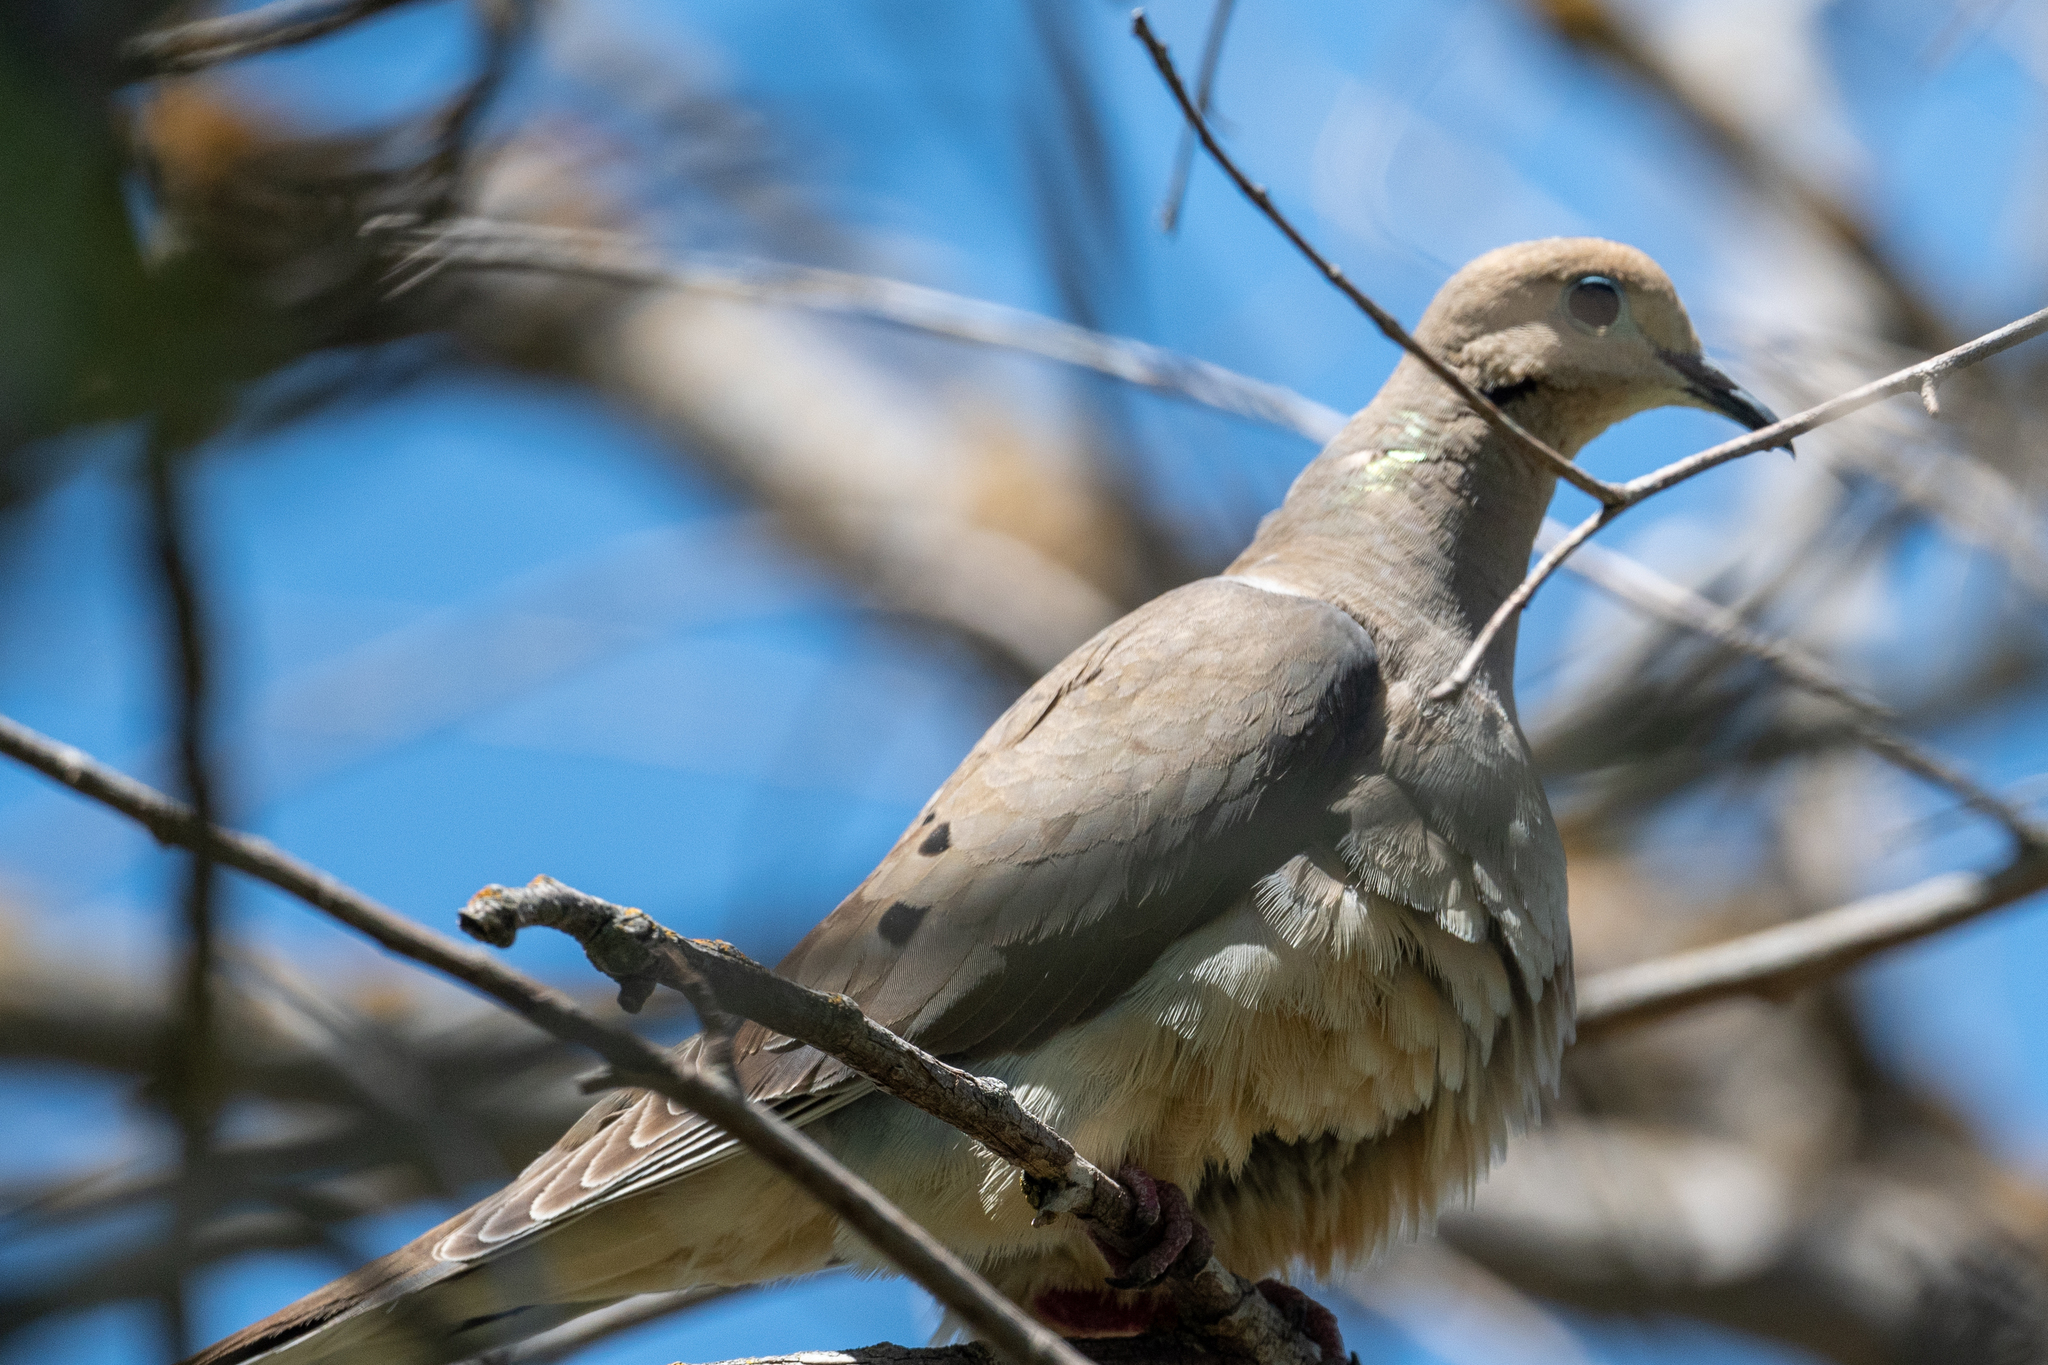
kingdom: Animalia
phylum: Chordata
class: Aves
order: Columbiformes
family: Columbidae
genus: Zenaida
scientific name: Zenaida macroura
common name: Mourning dove
